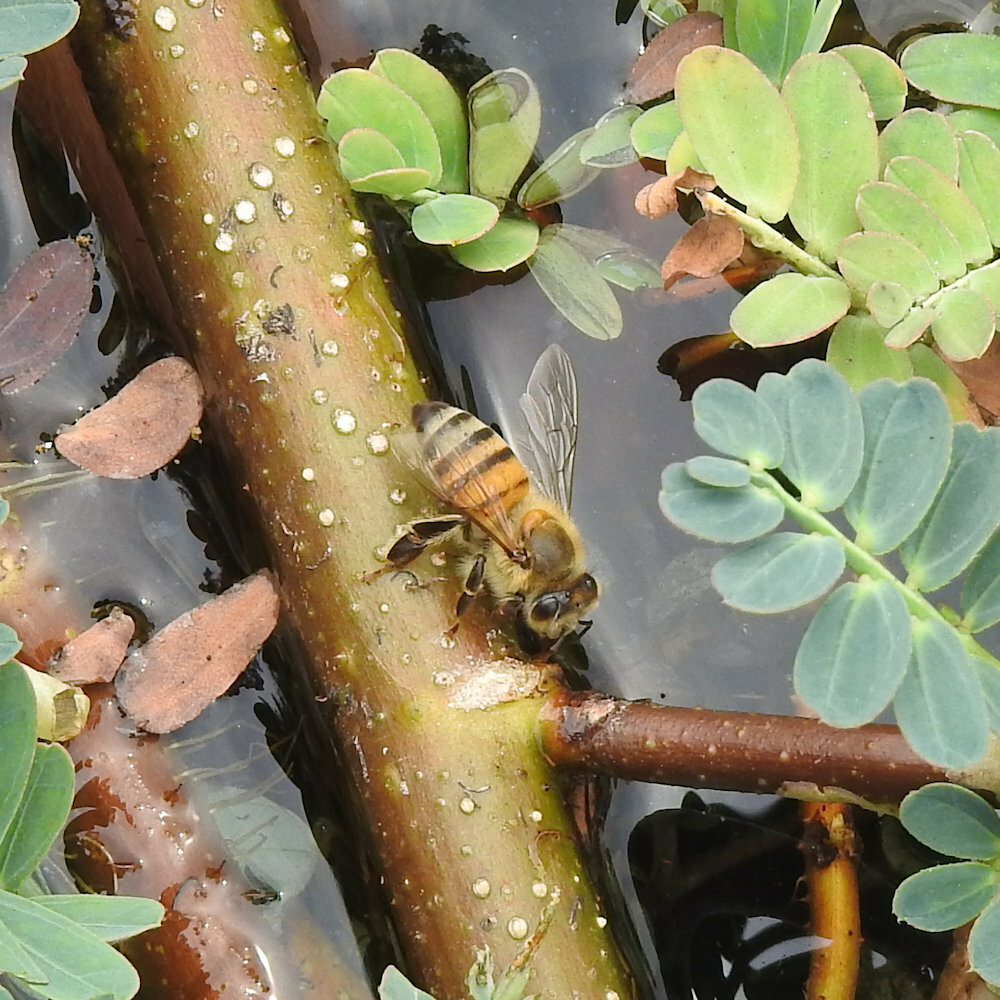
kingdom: Animalia
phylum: Arthropoda
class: Insecta
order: Hymenoptera
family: Apidae
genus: Apis
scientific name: Apis mellifera
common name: Honey bee
